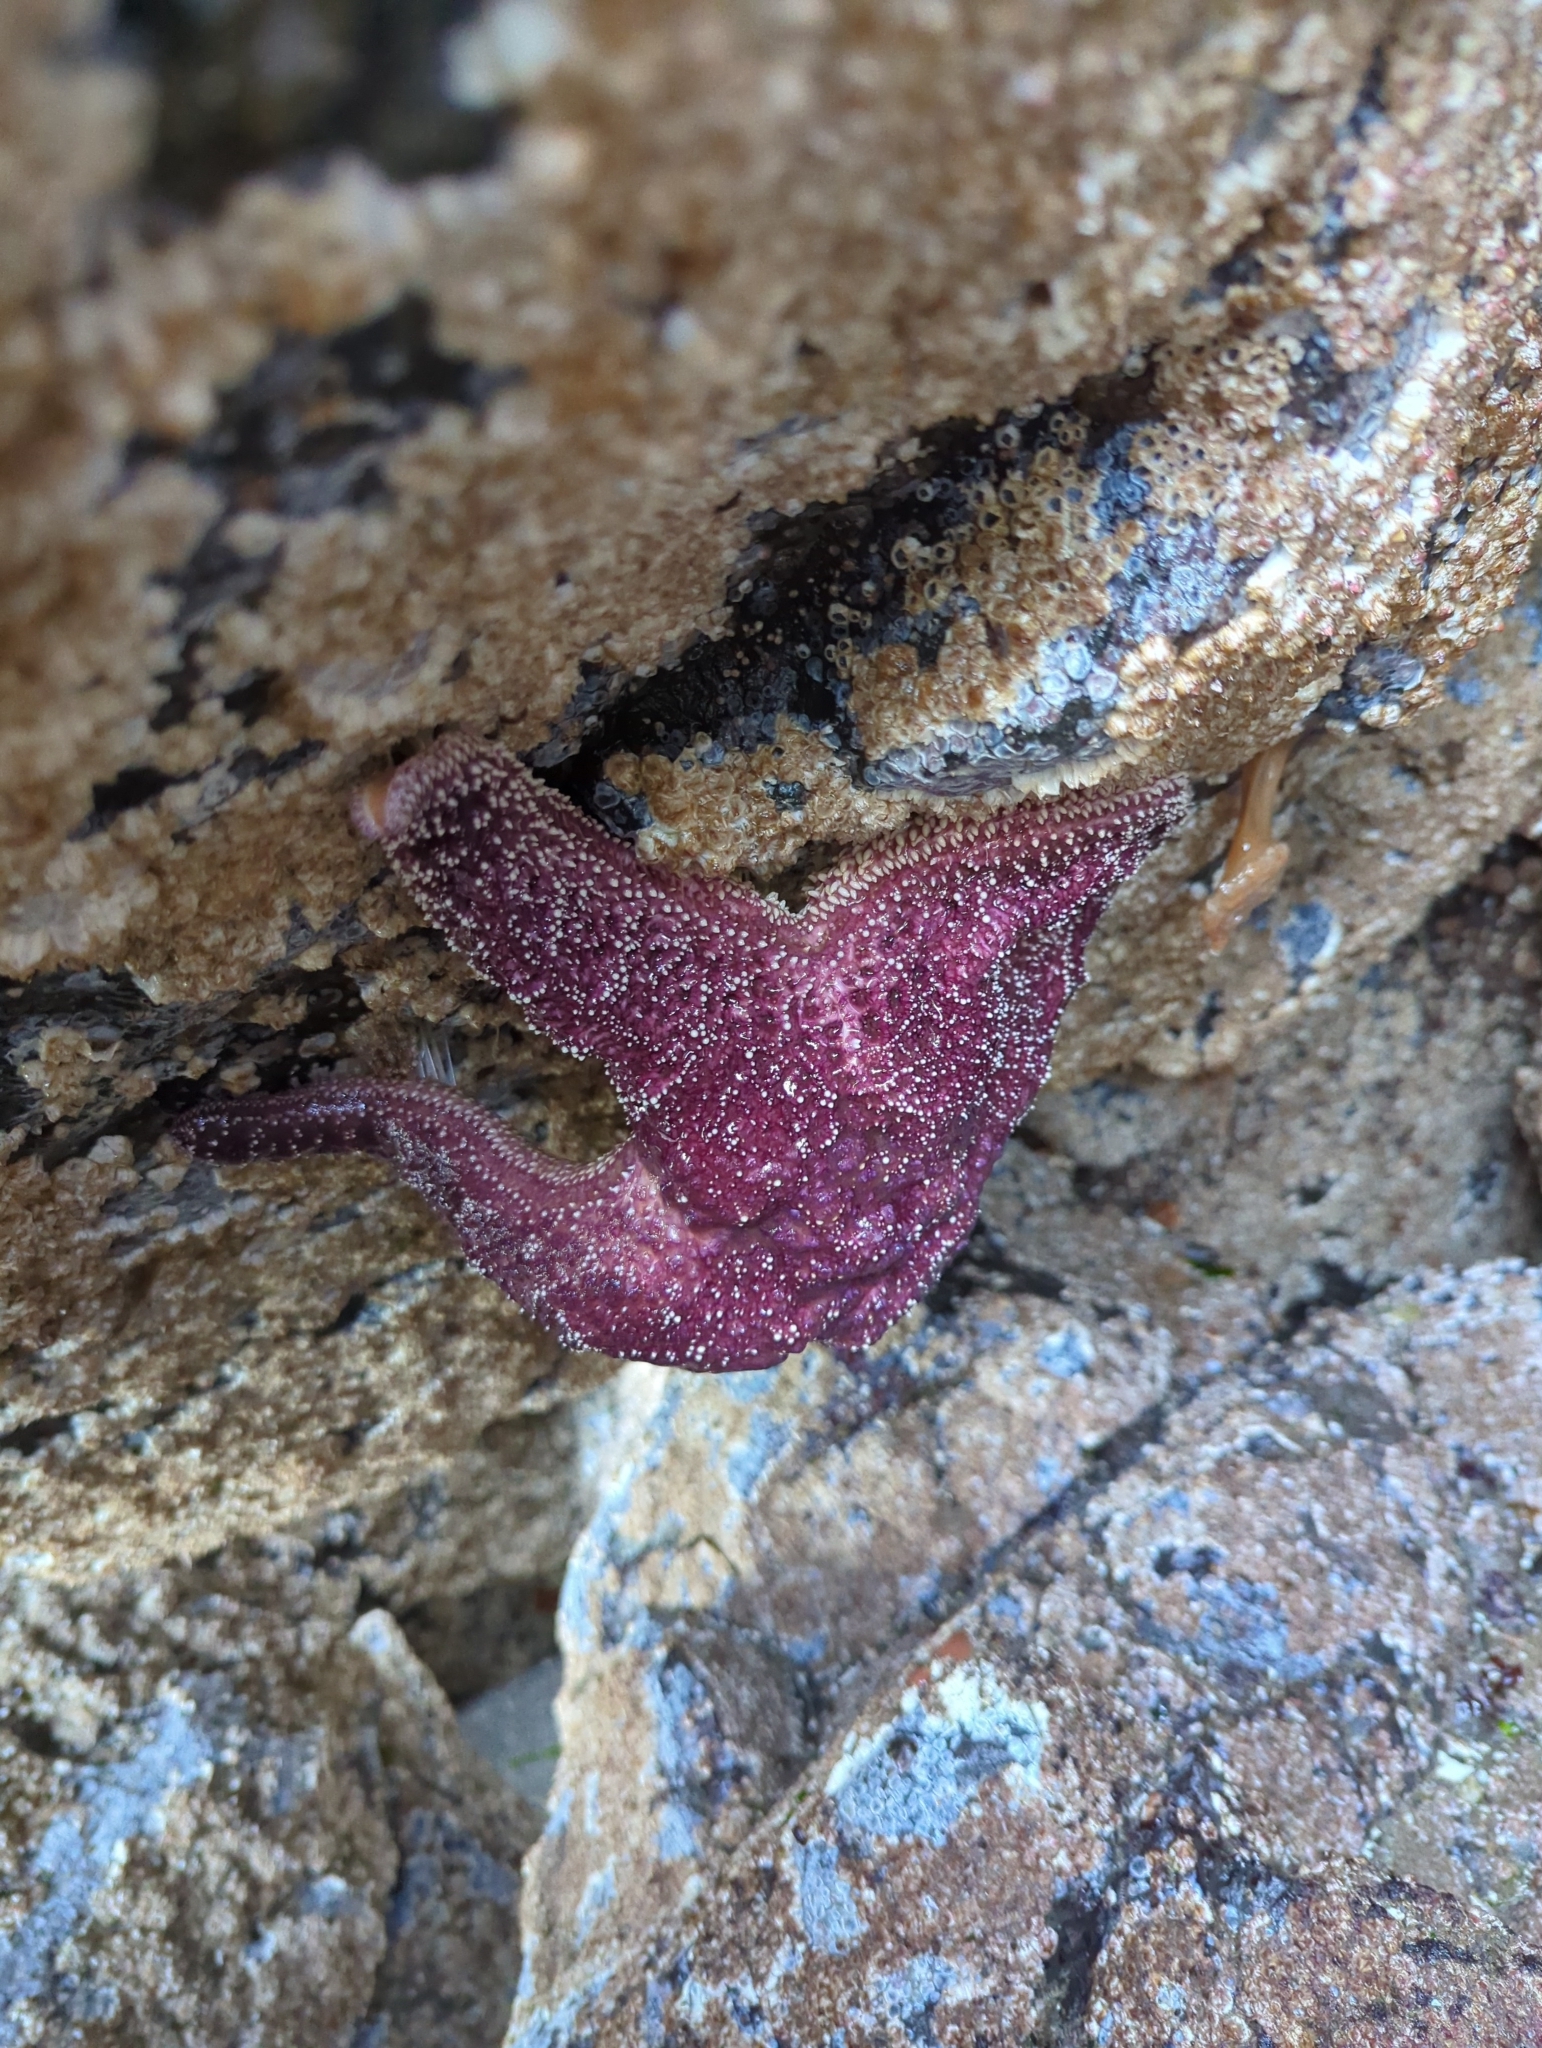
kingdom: Animalia
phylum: Echinodermata
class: Asteroidea
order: Forcipulatida
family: Asteriidae
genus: Pisaster
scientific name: Pisaster ochraceus
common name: Ochre stars
